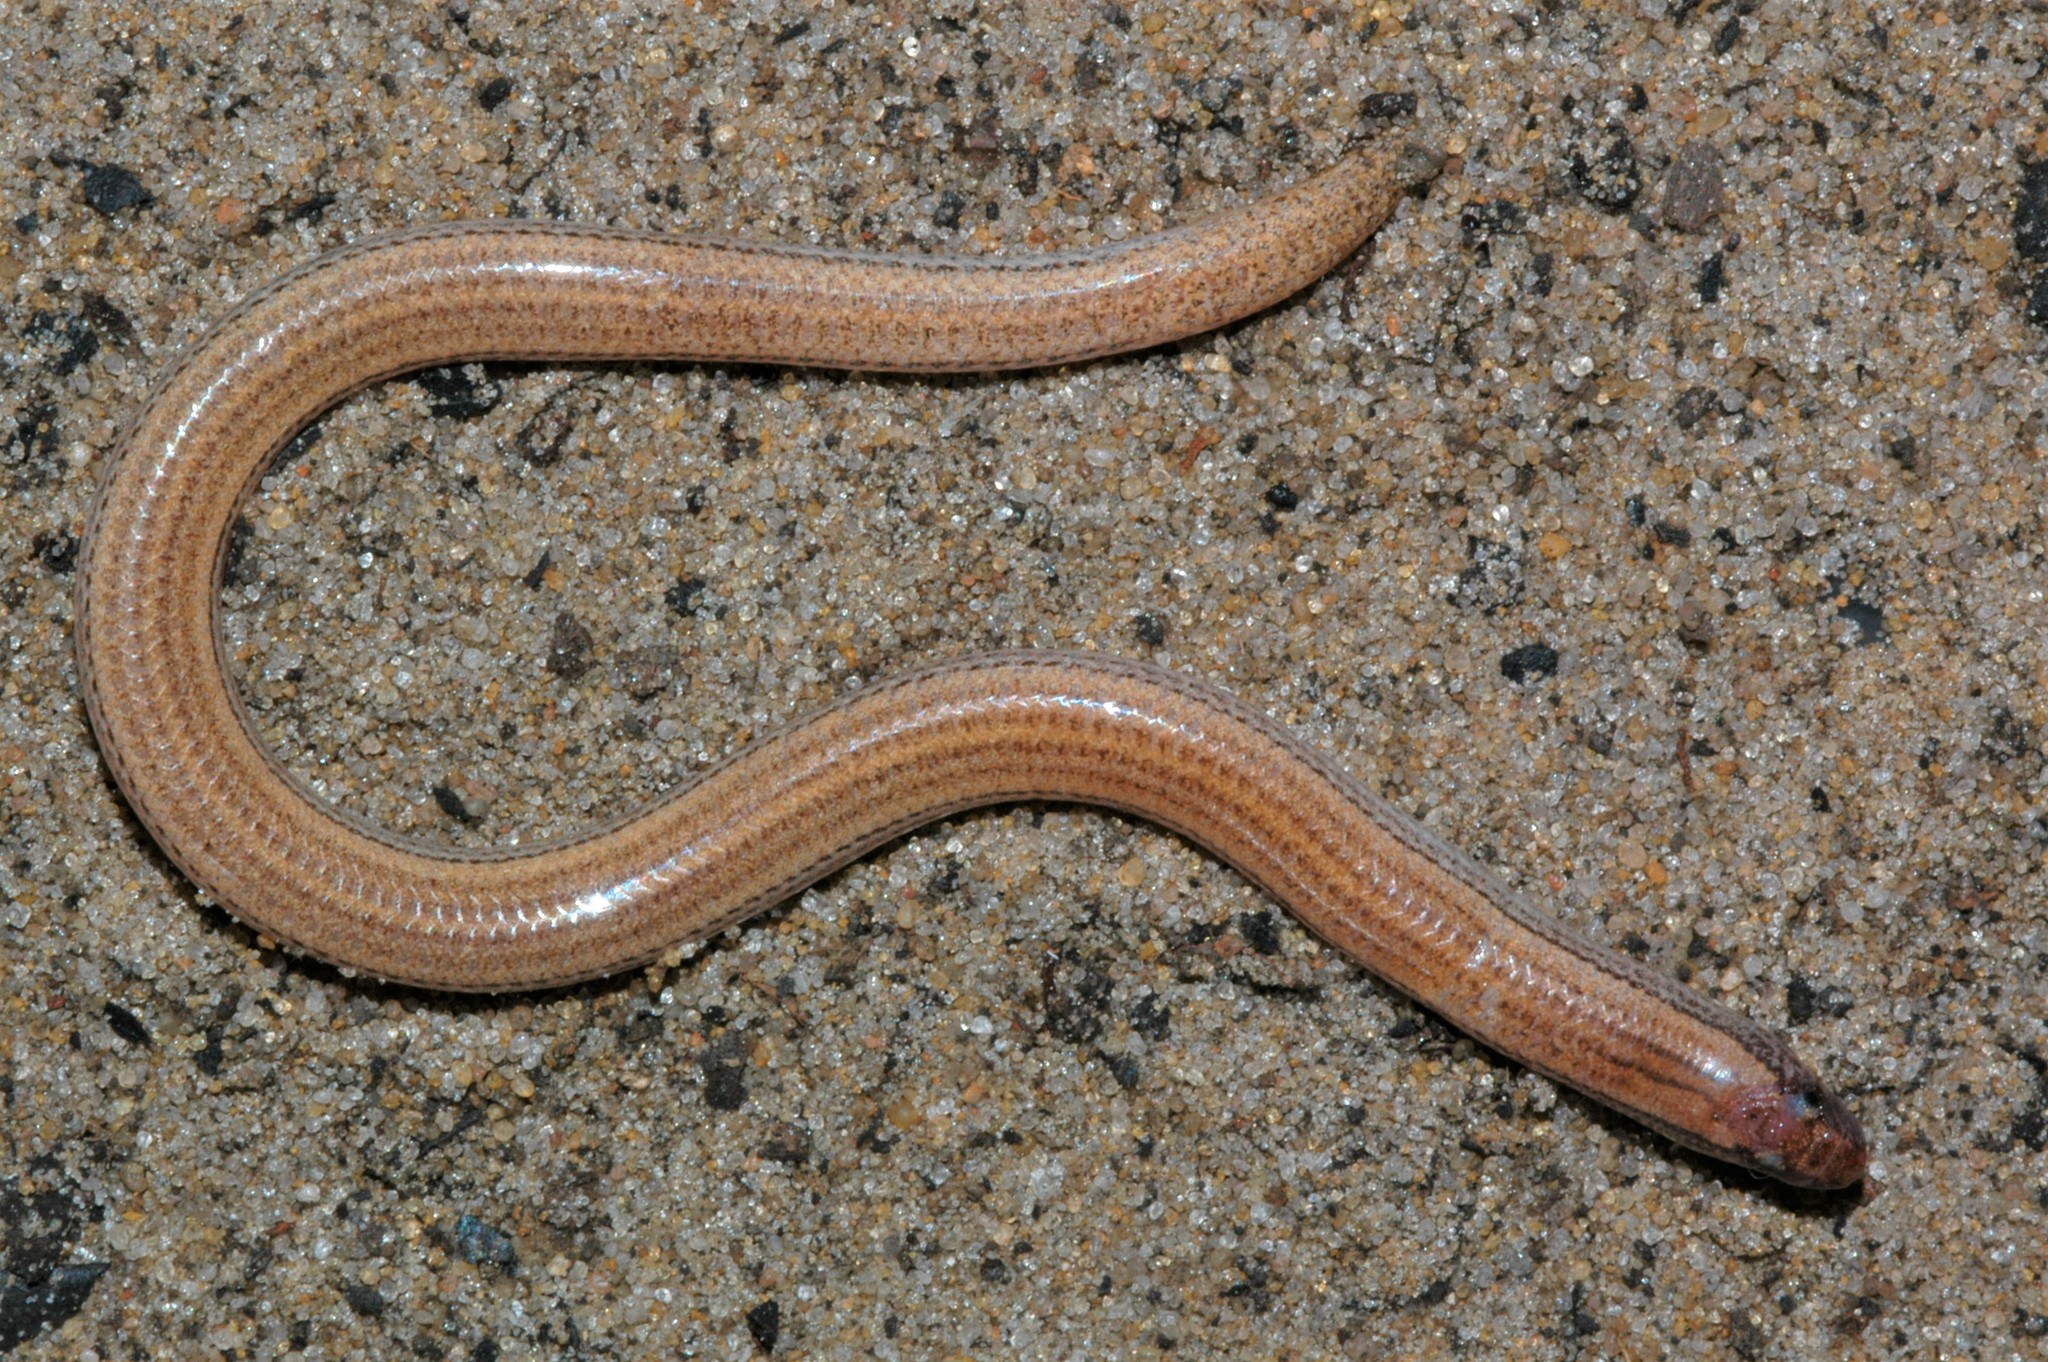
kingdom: Animalia
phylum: Chordata
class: Squamata
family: Scincidae
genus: Typhlacontias
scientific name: Typhlacontias rohani
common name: Rohan's blind dart skink
